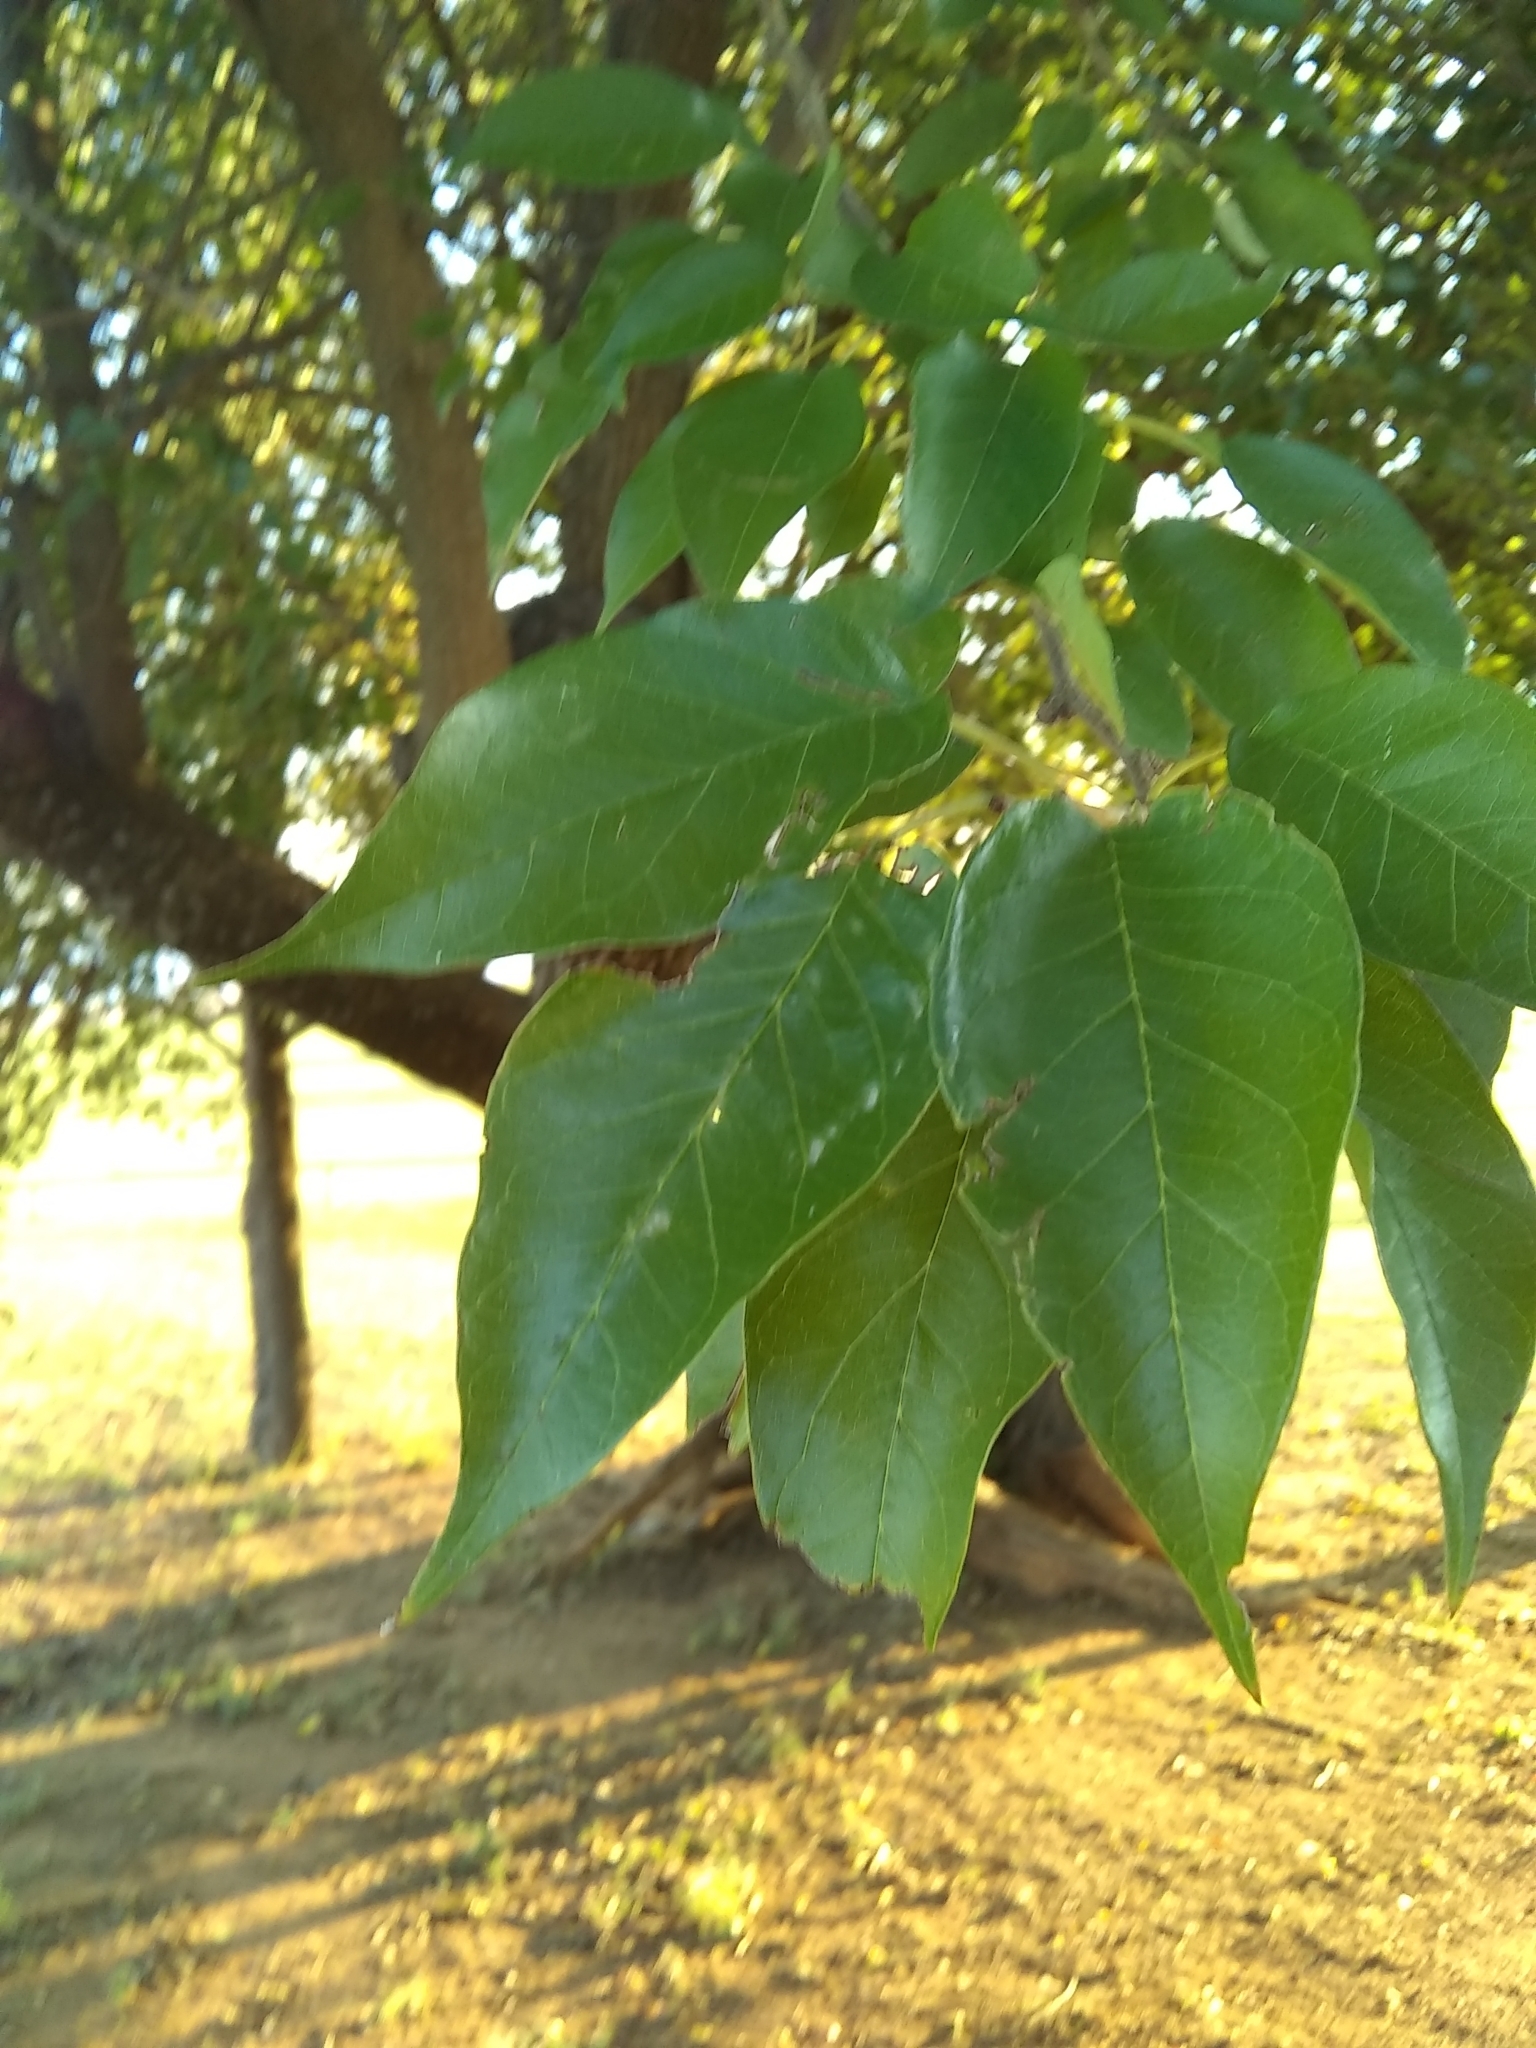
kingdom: Plantae
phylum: Tracheophyta
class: Magnoliopsida
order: Rosales
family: Moraceae
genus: Maclura
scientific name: Maclura pomifera
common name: Osage-orange
